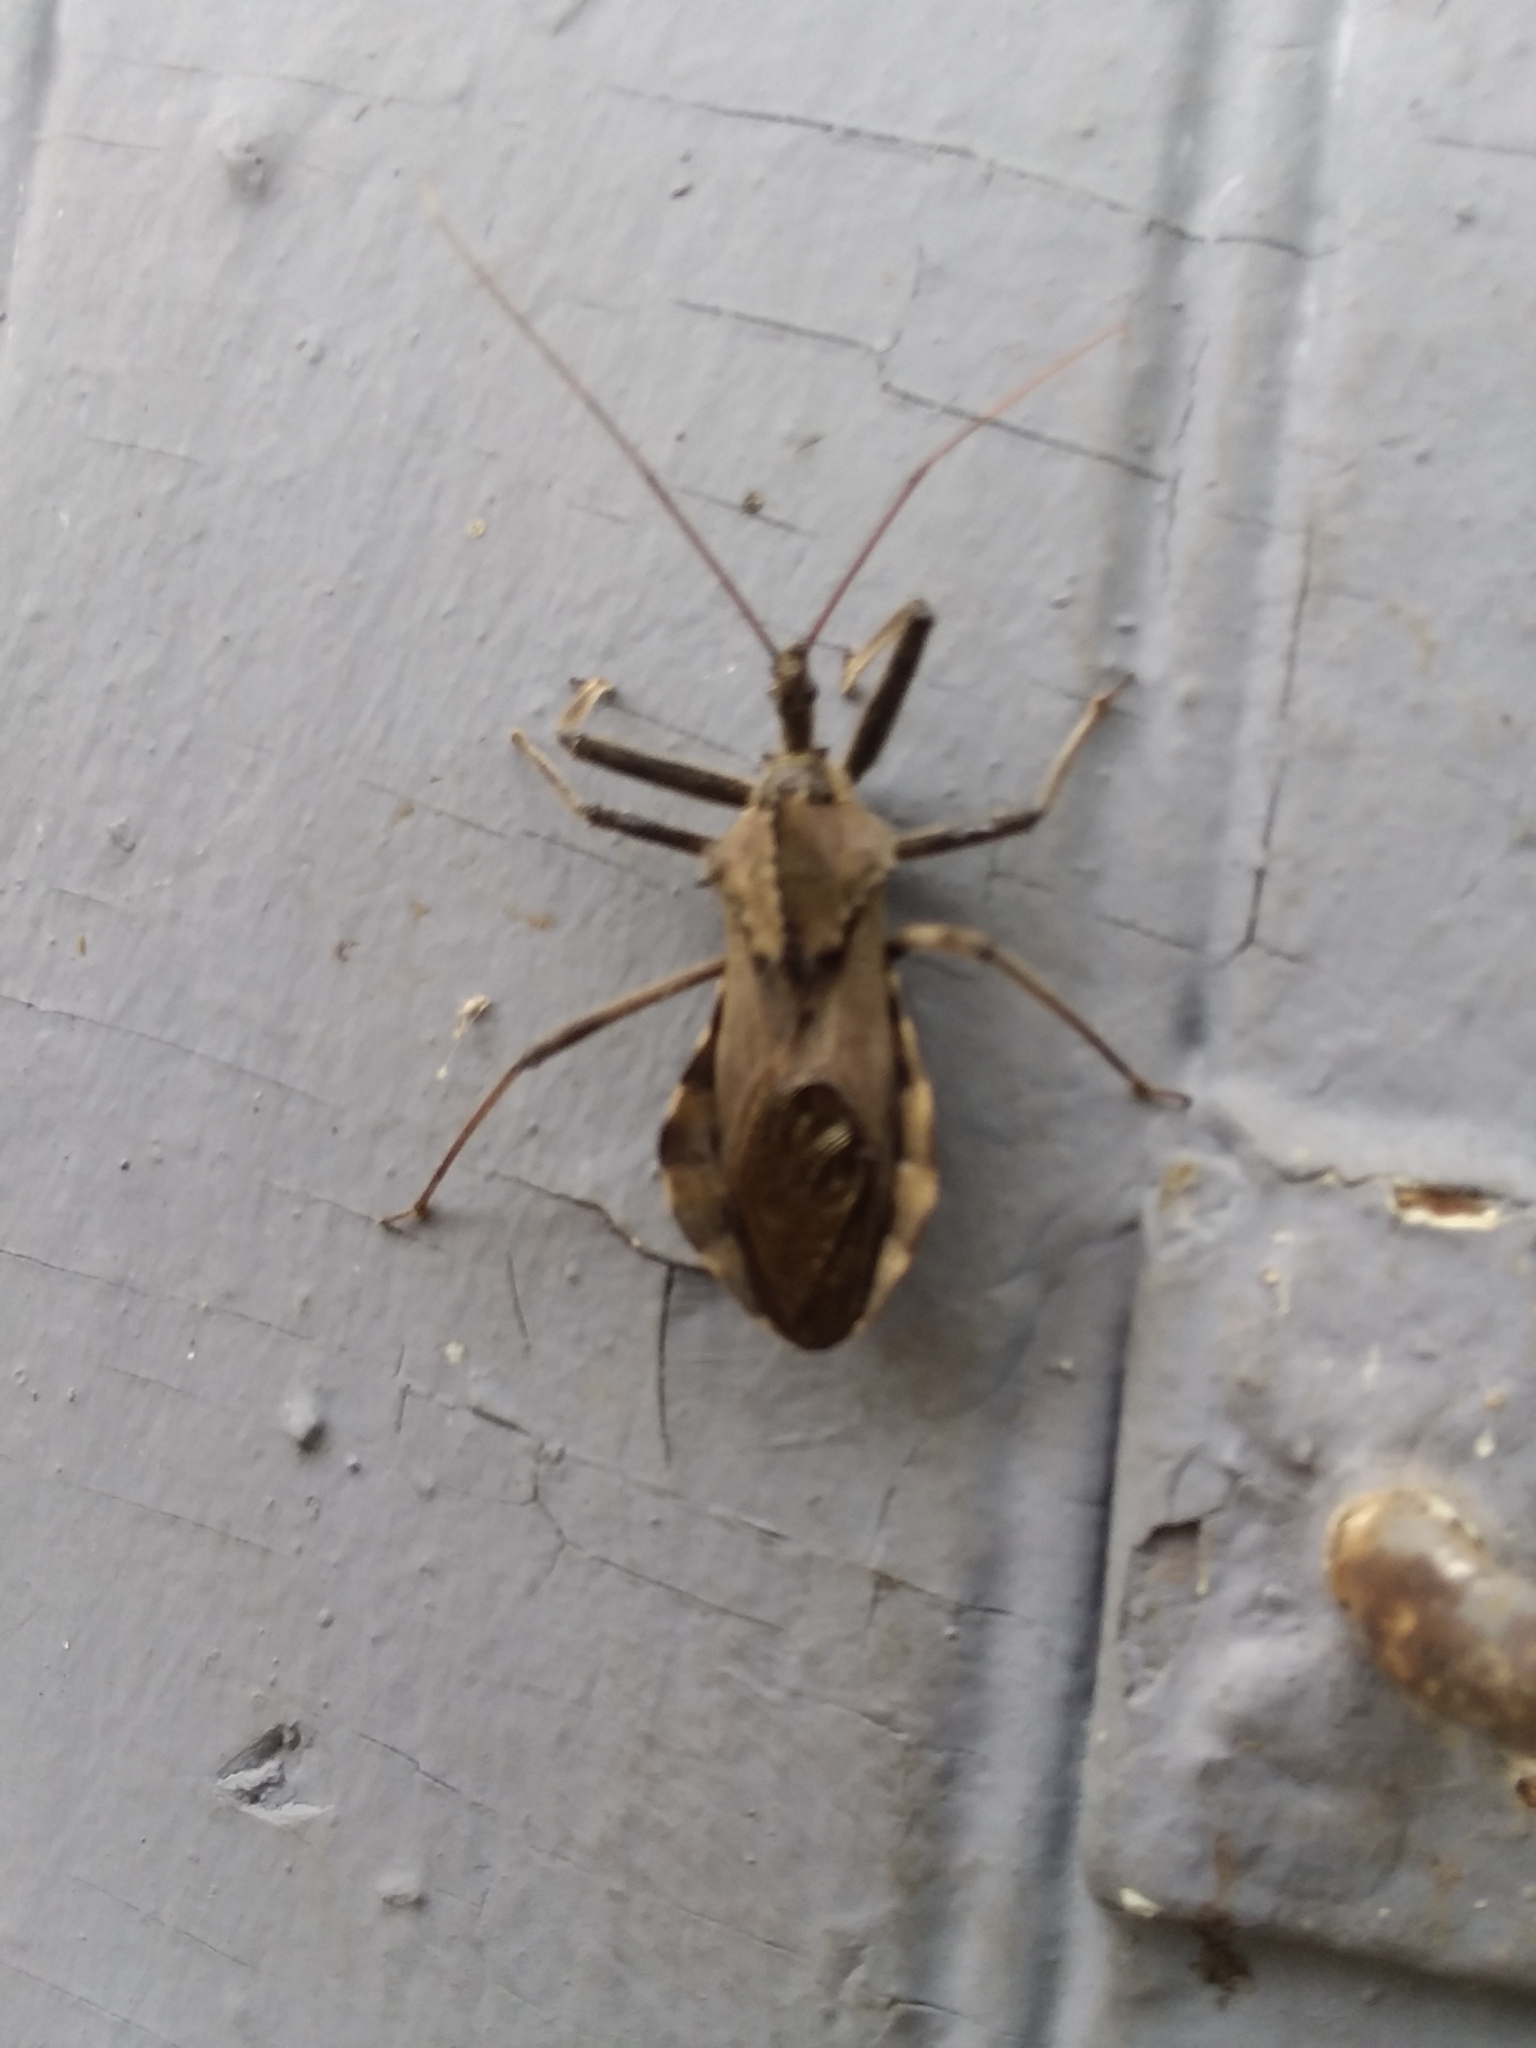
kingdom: Animalia
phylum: Arthropoda
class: Insecta
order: Hemiptera
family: Reduviidae
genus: Arilus
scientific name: Arilus cristatus
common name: North american wheel bug
